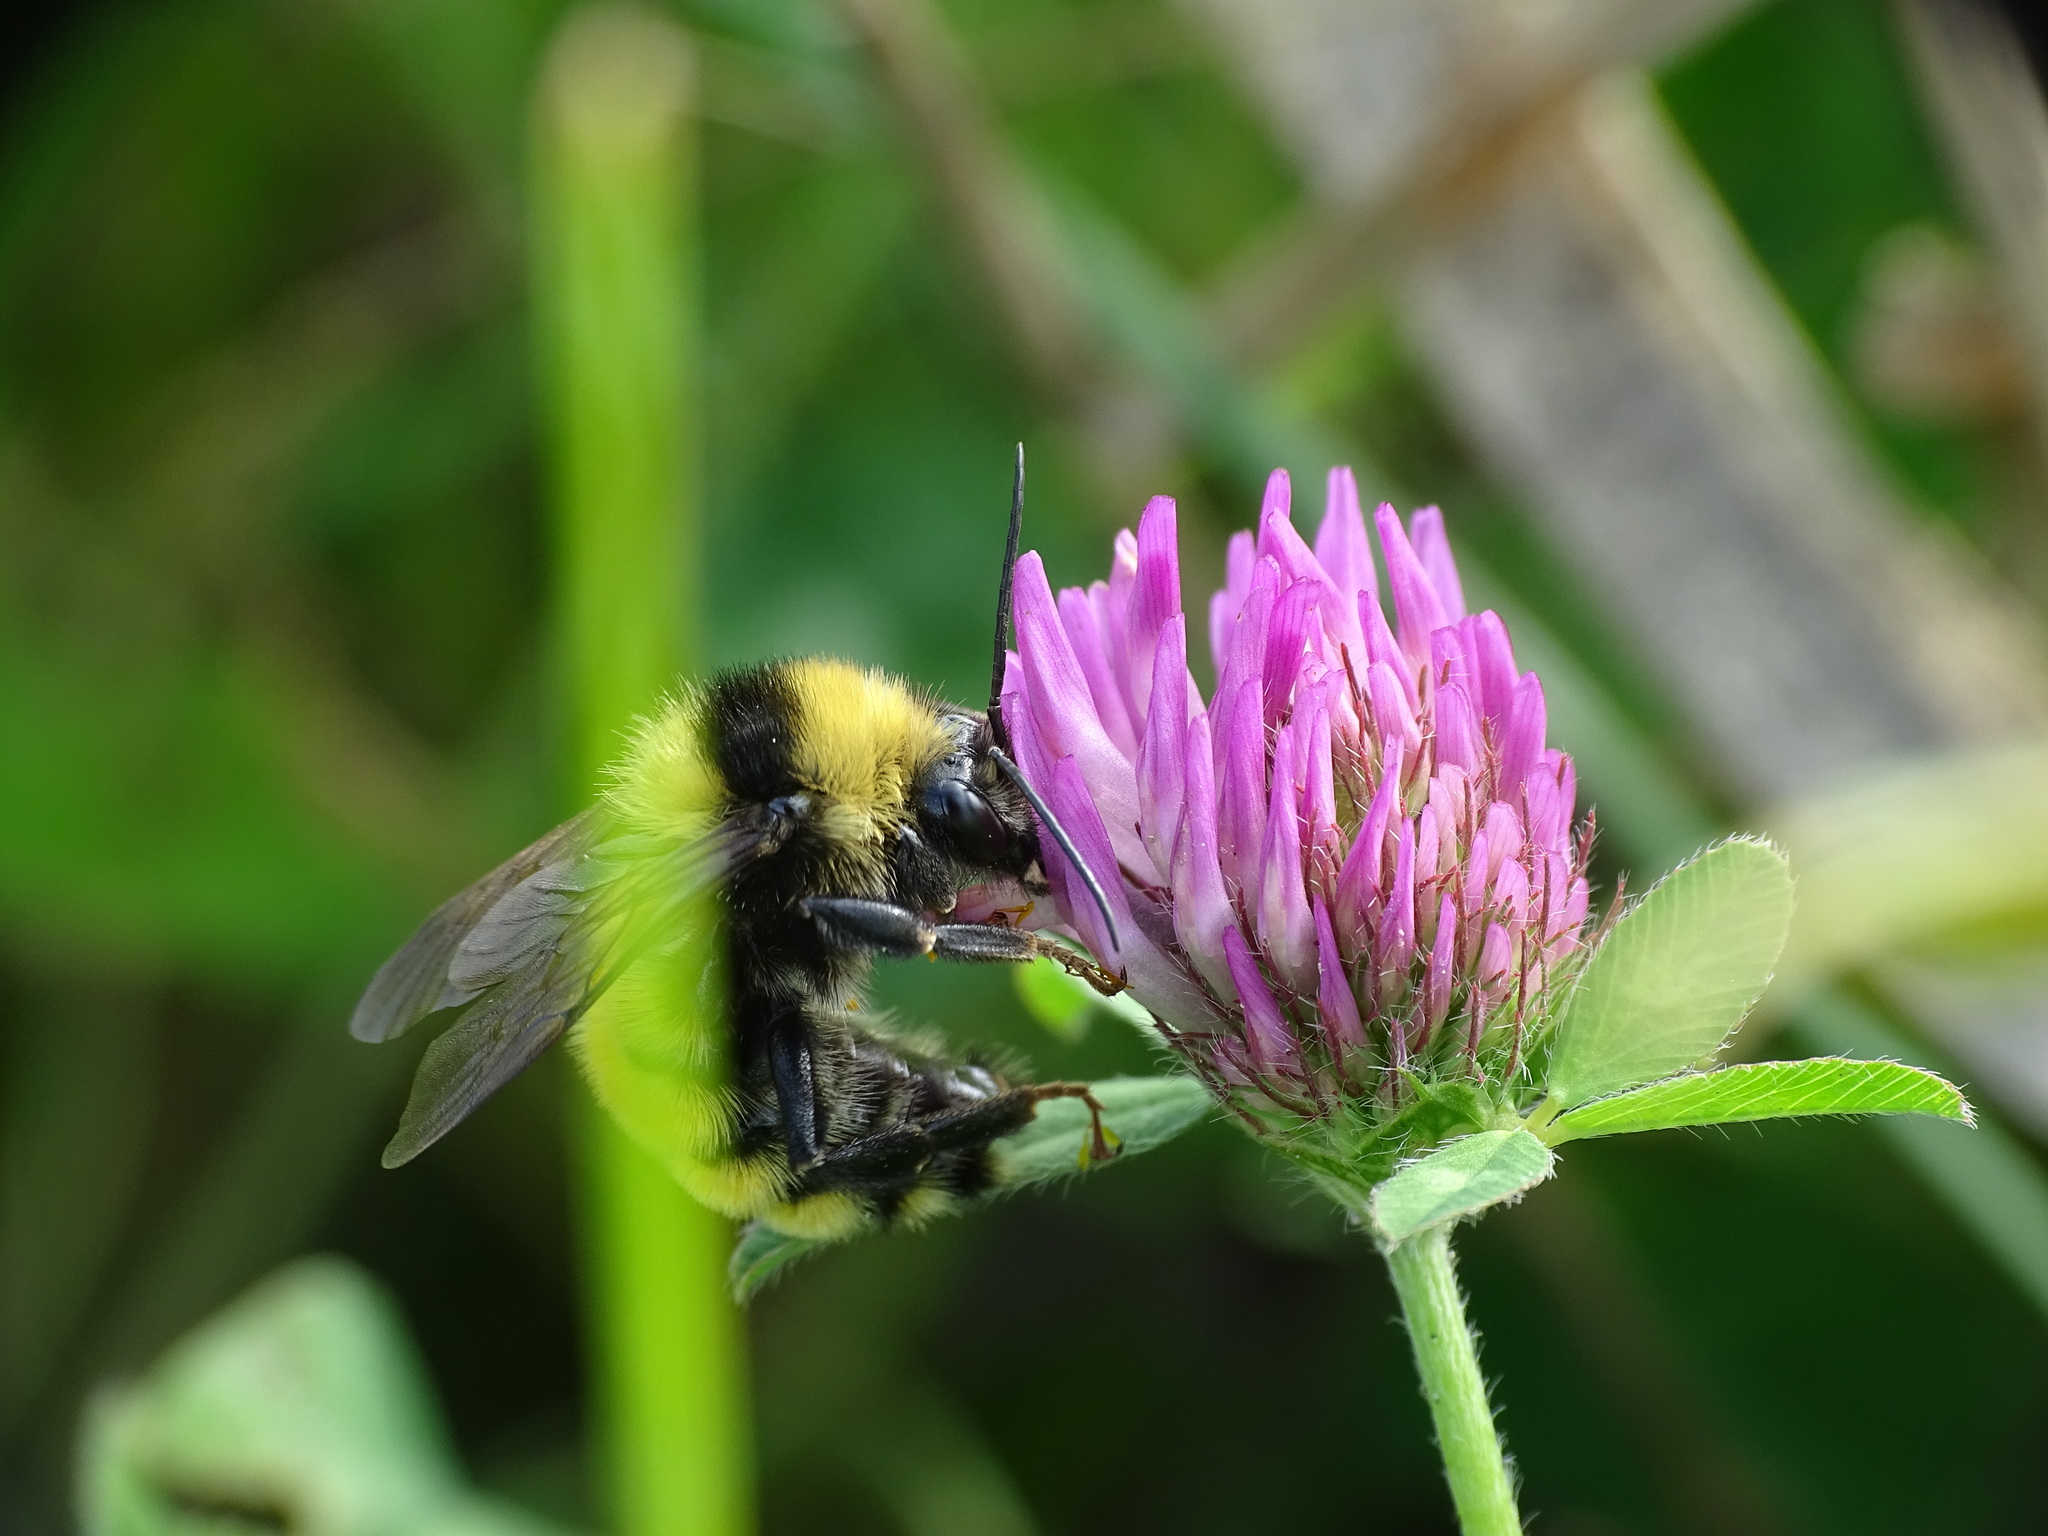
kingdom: Animalia
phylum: Arthropoda
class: Insecta
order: Hymenoptera
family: Apidae
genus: Bombus
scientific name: Bombus borealis
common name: Northern amber bumble bee
